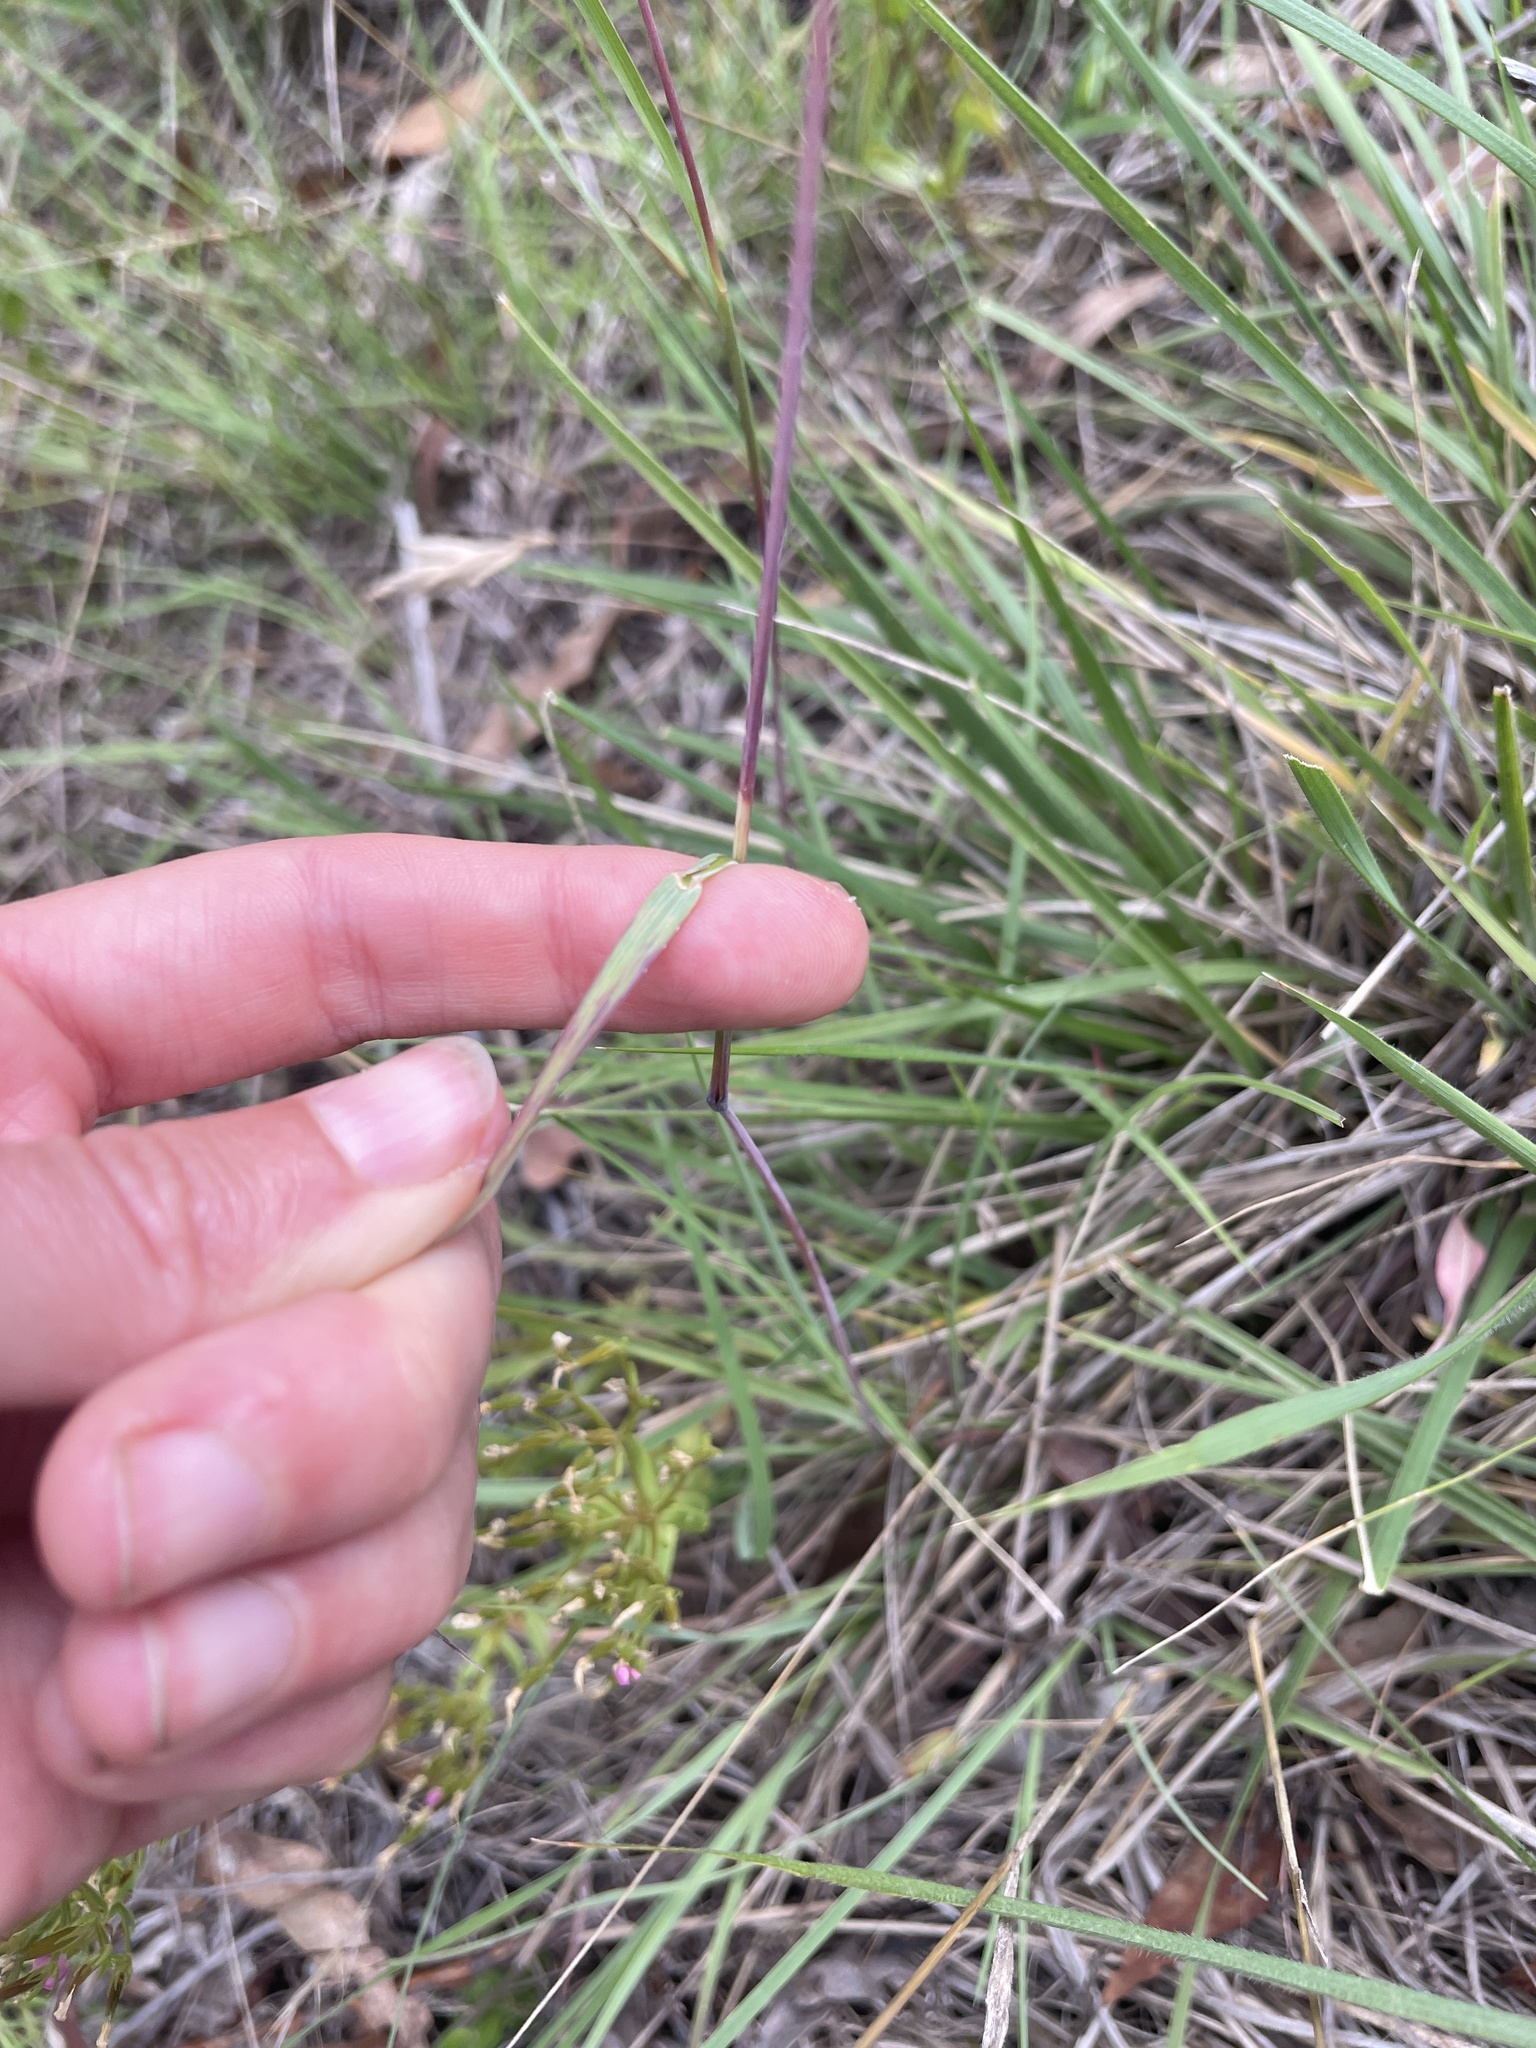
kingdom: Plantae
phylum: Tracheophyta
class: Liliopsida
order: Poales
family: Poaceae
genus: Themeda
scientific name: Themeda triandra
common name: Kangaroo grass
